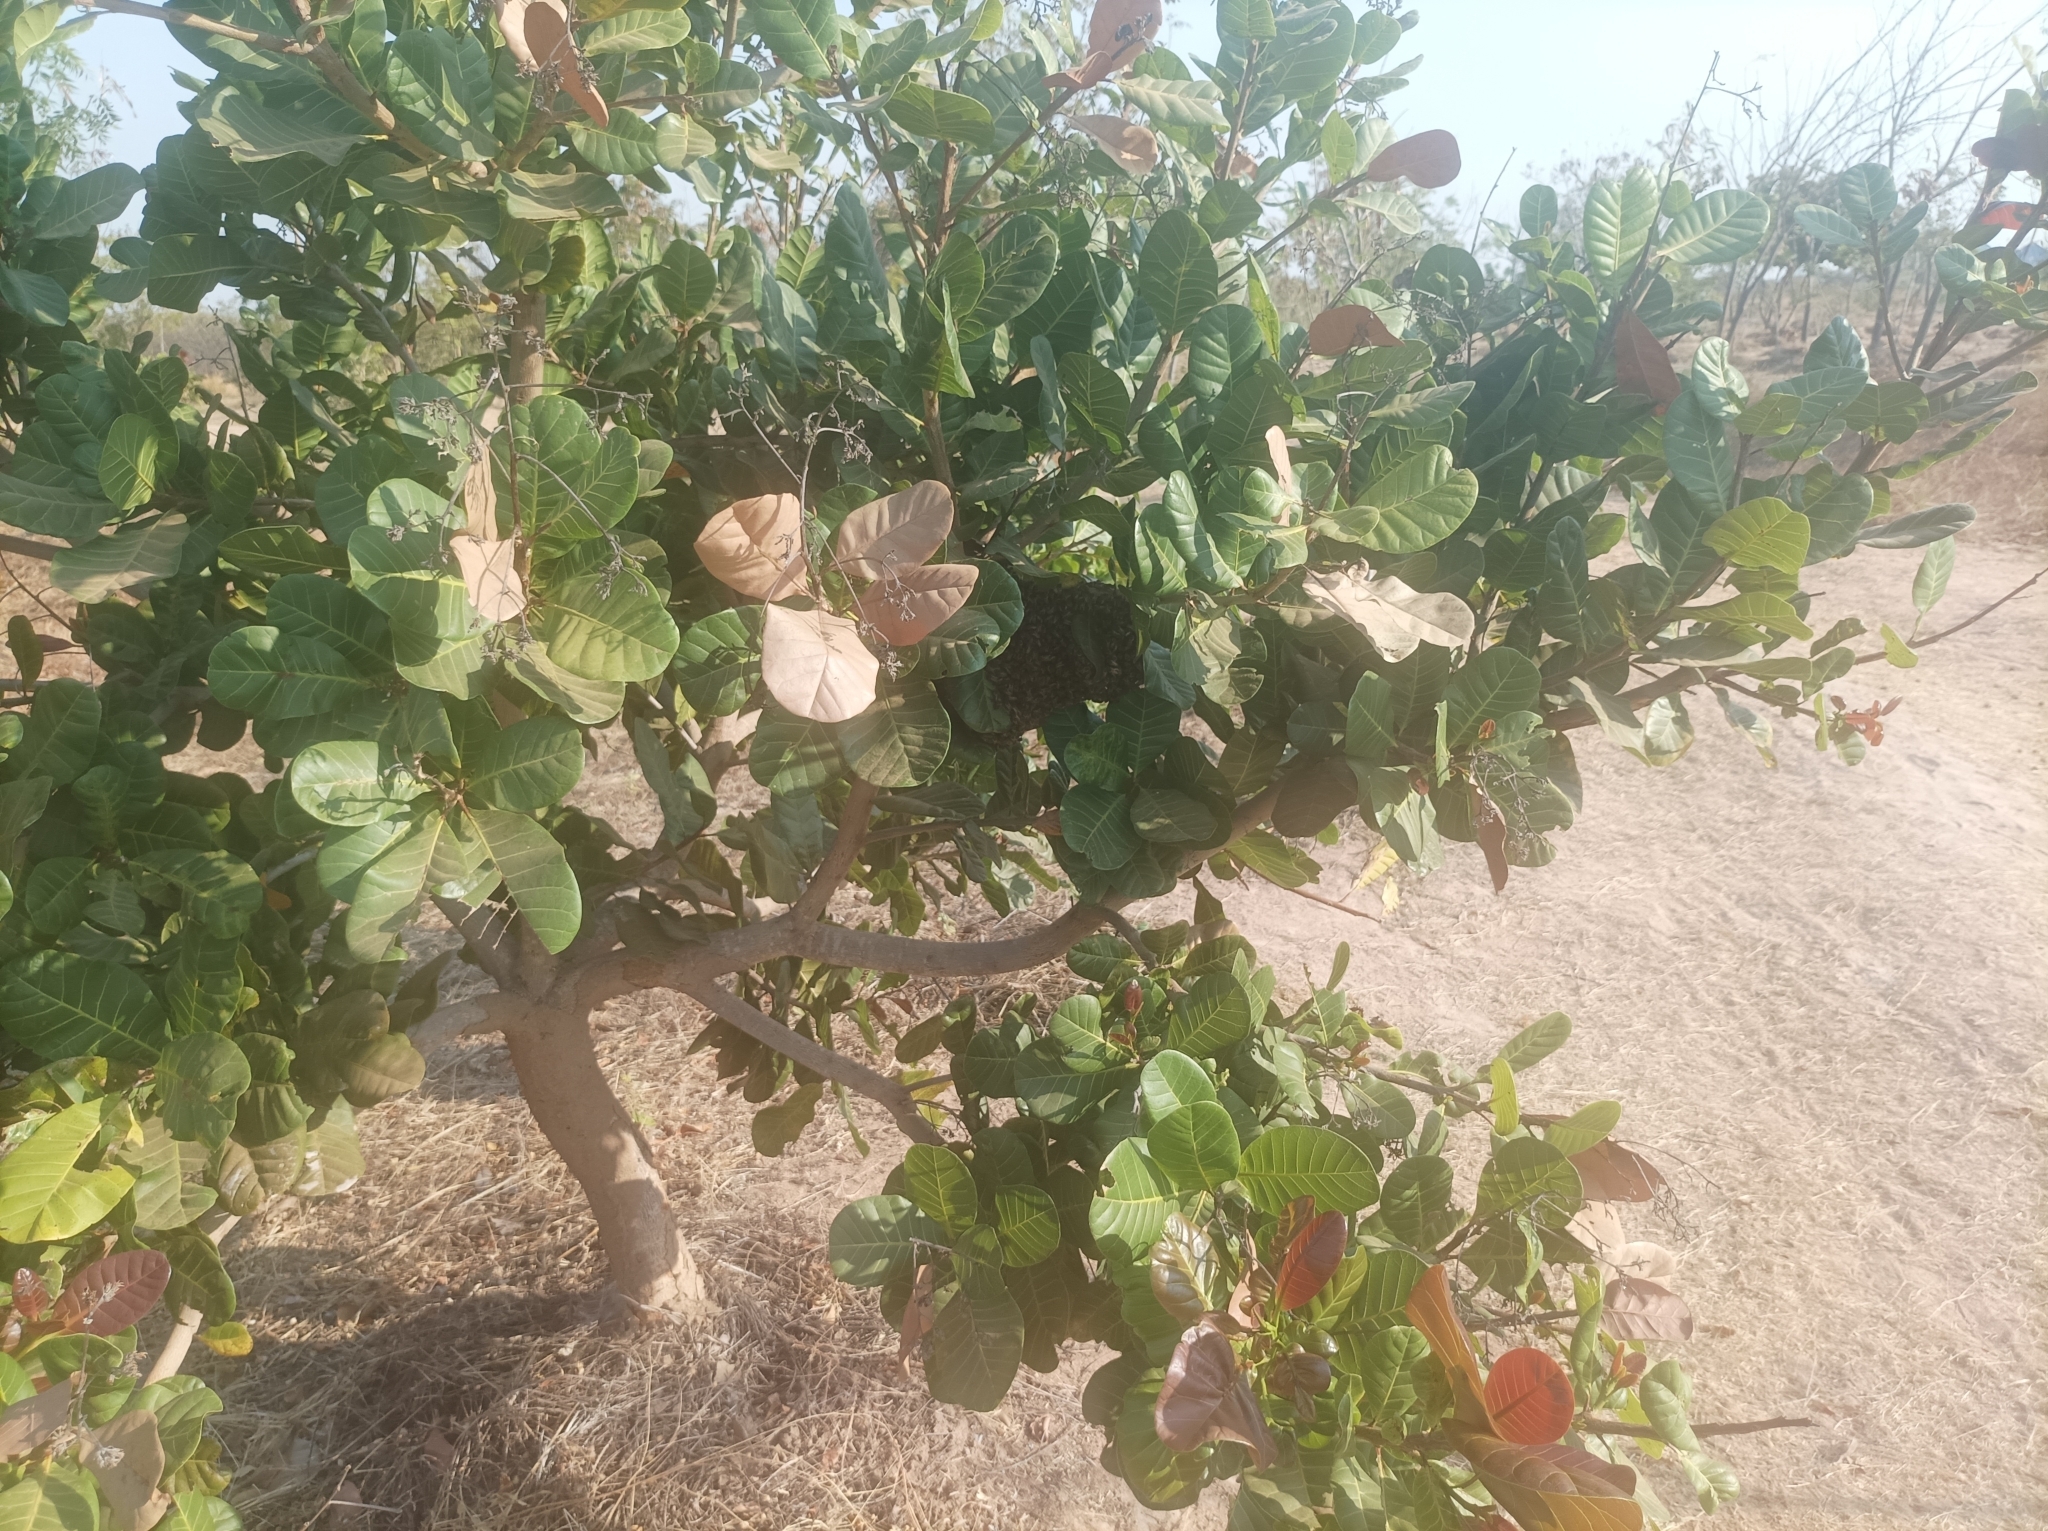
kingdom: Animalia
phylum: Arthropoda
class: Insecta
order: Hymenoptera
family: Apidae
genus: Apis
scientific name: Apis mellifera
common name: Honey bee
